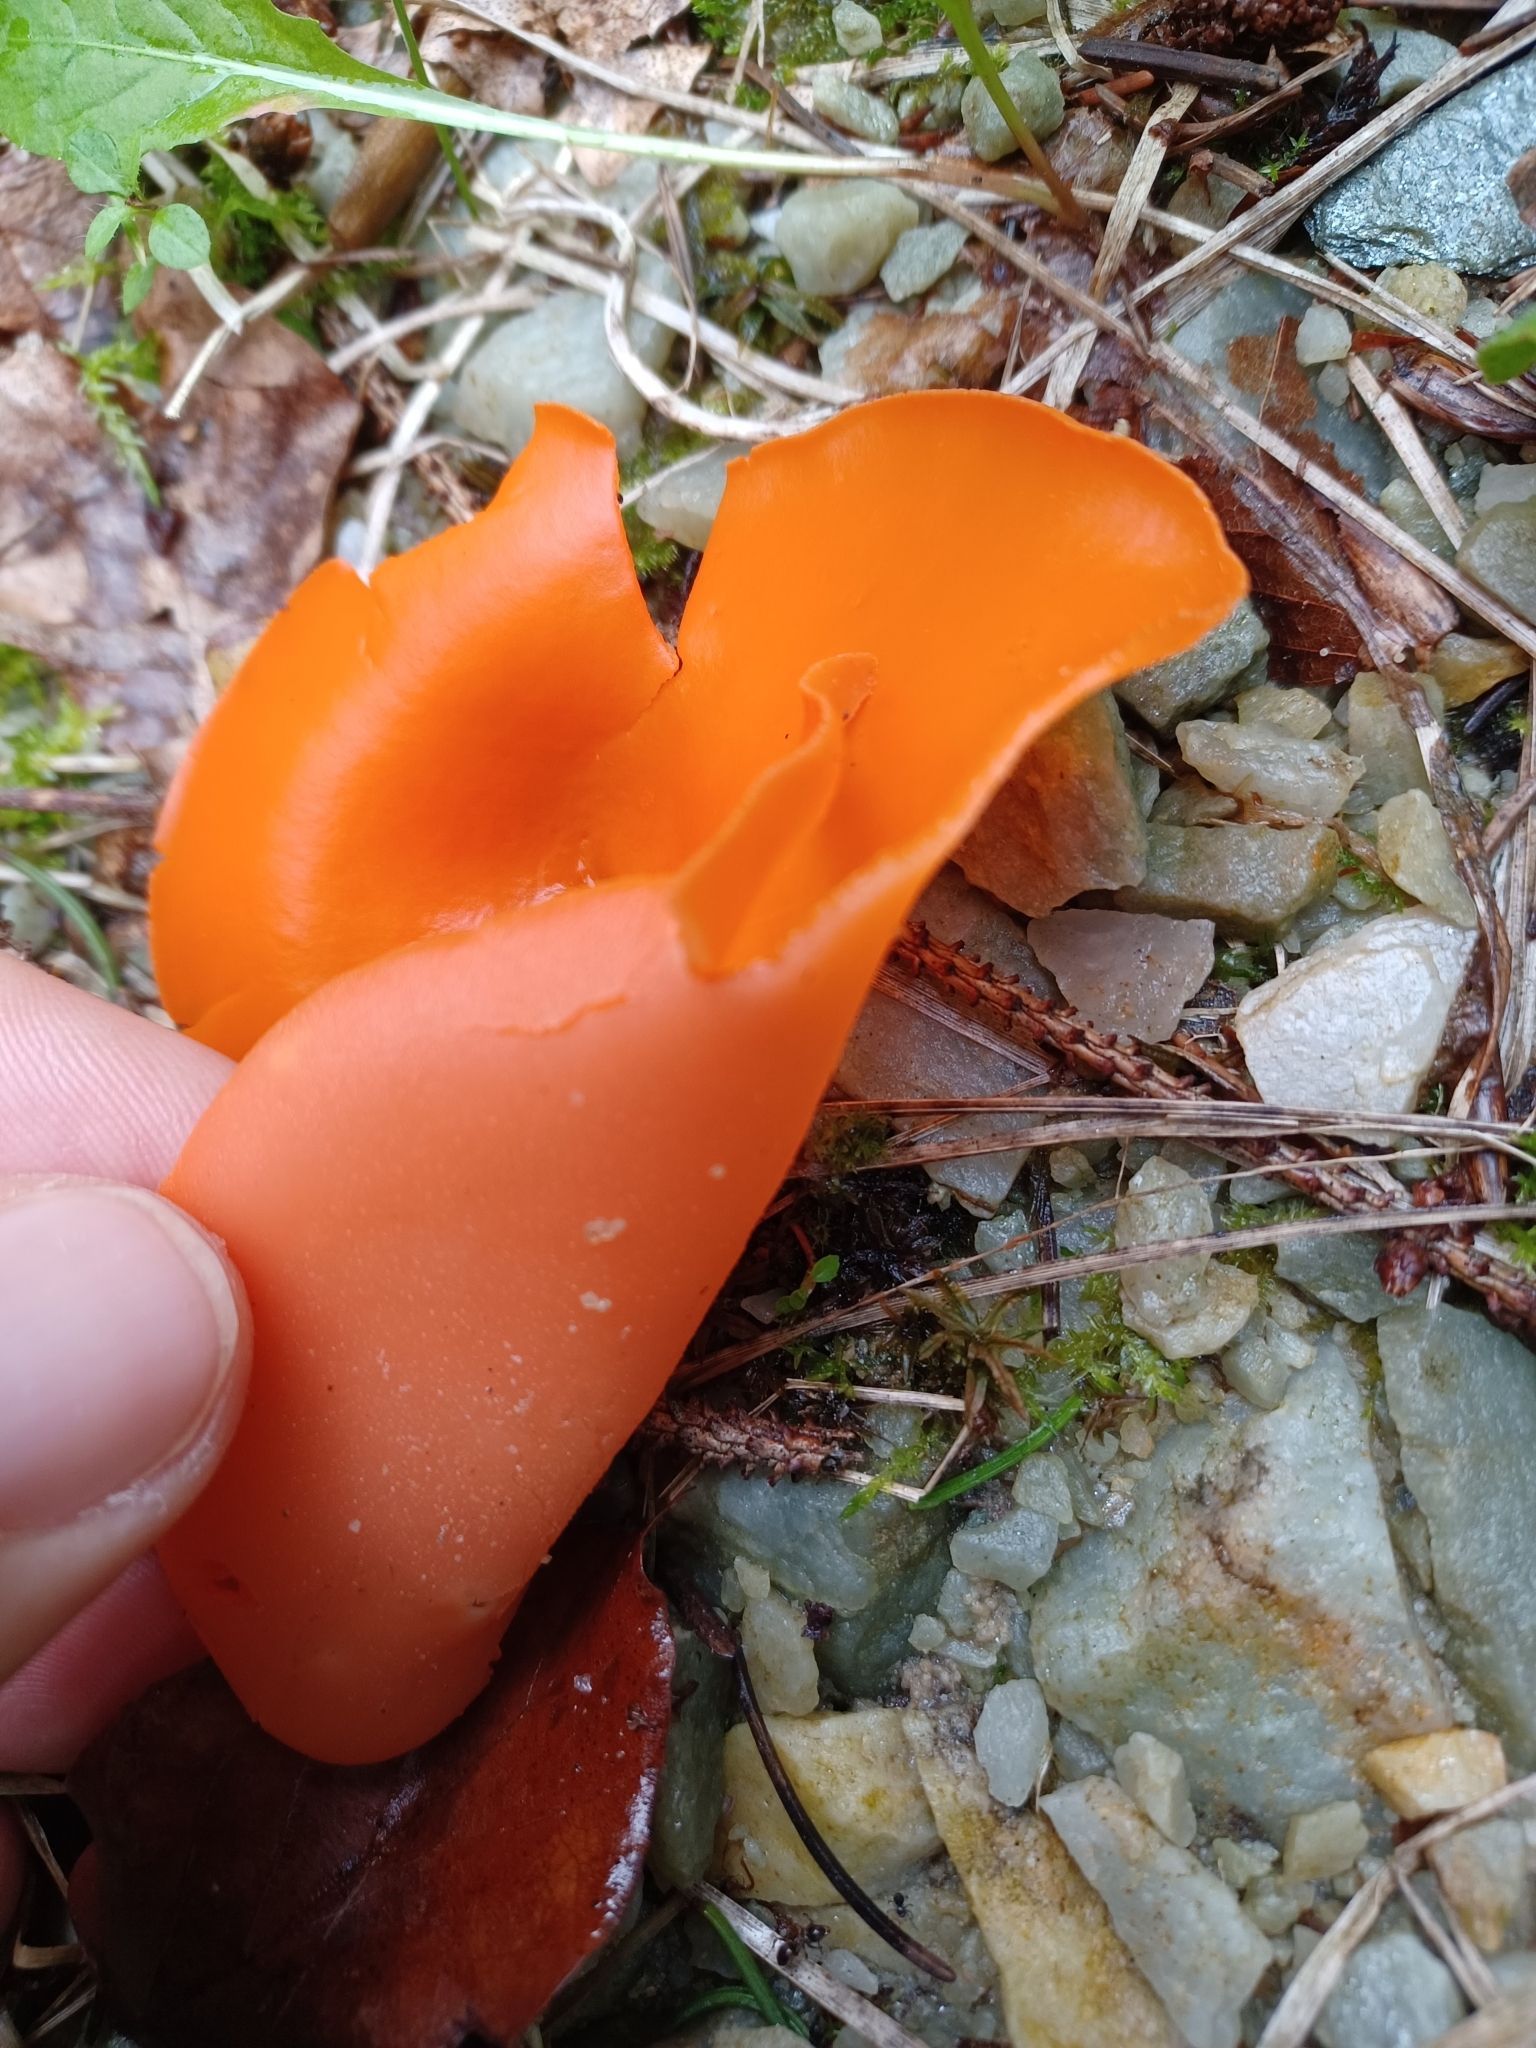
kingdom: Fungi
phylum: Ascomycota
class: Pezizomycetes
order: Pezizales
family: Pyronemataceae
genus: Aleuria
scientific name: Aleuria aurantia
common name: Orange peel fungus
